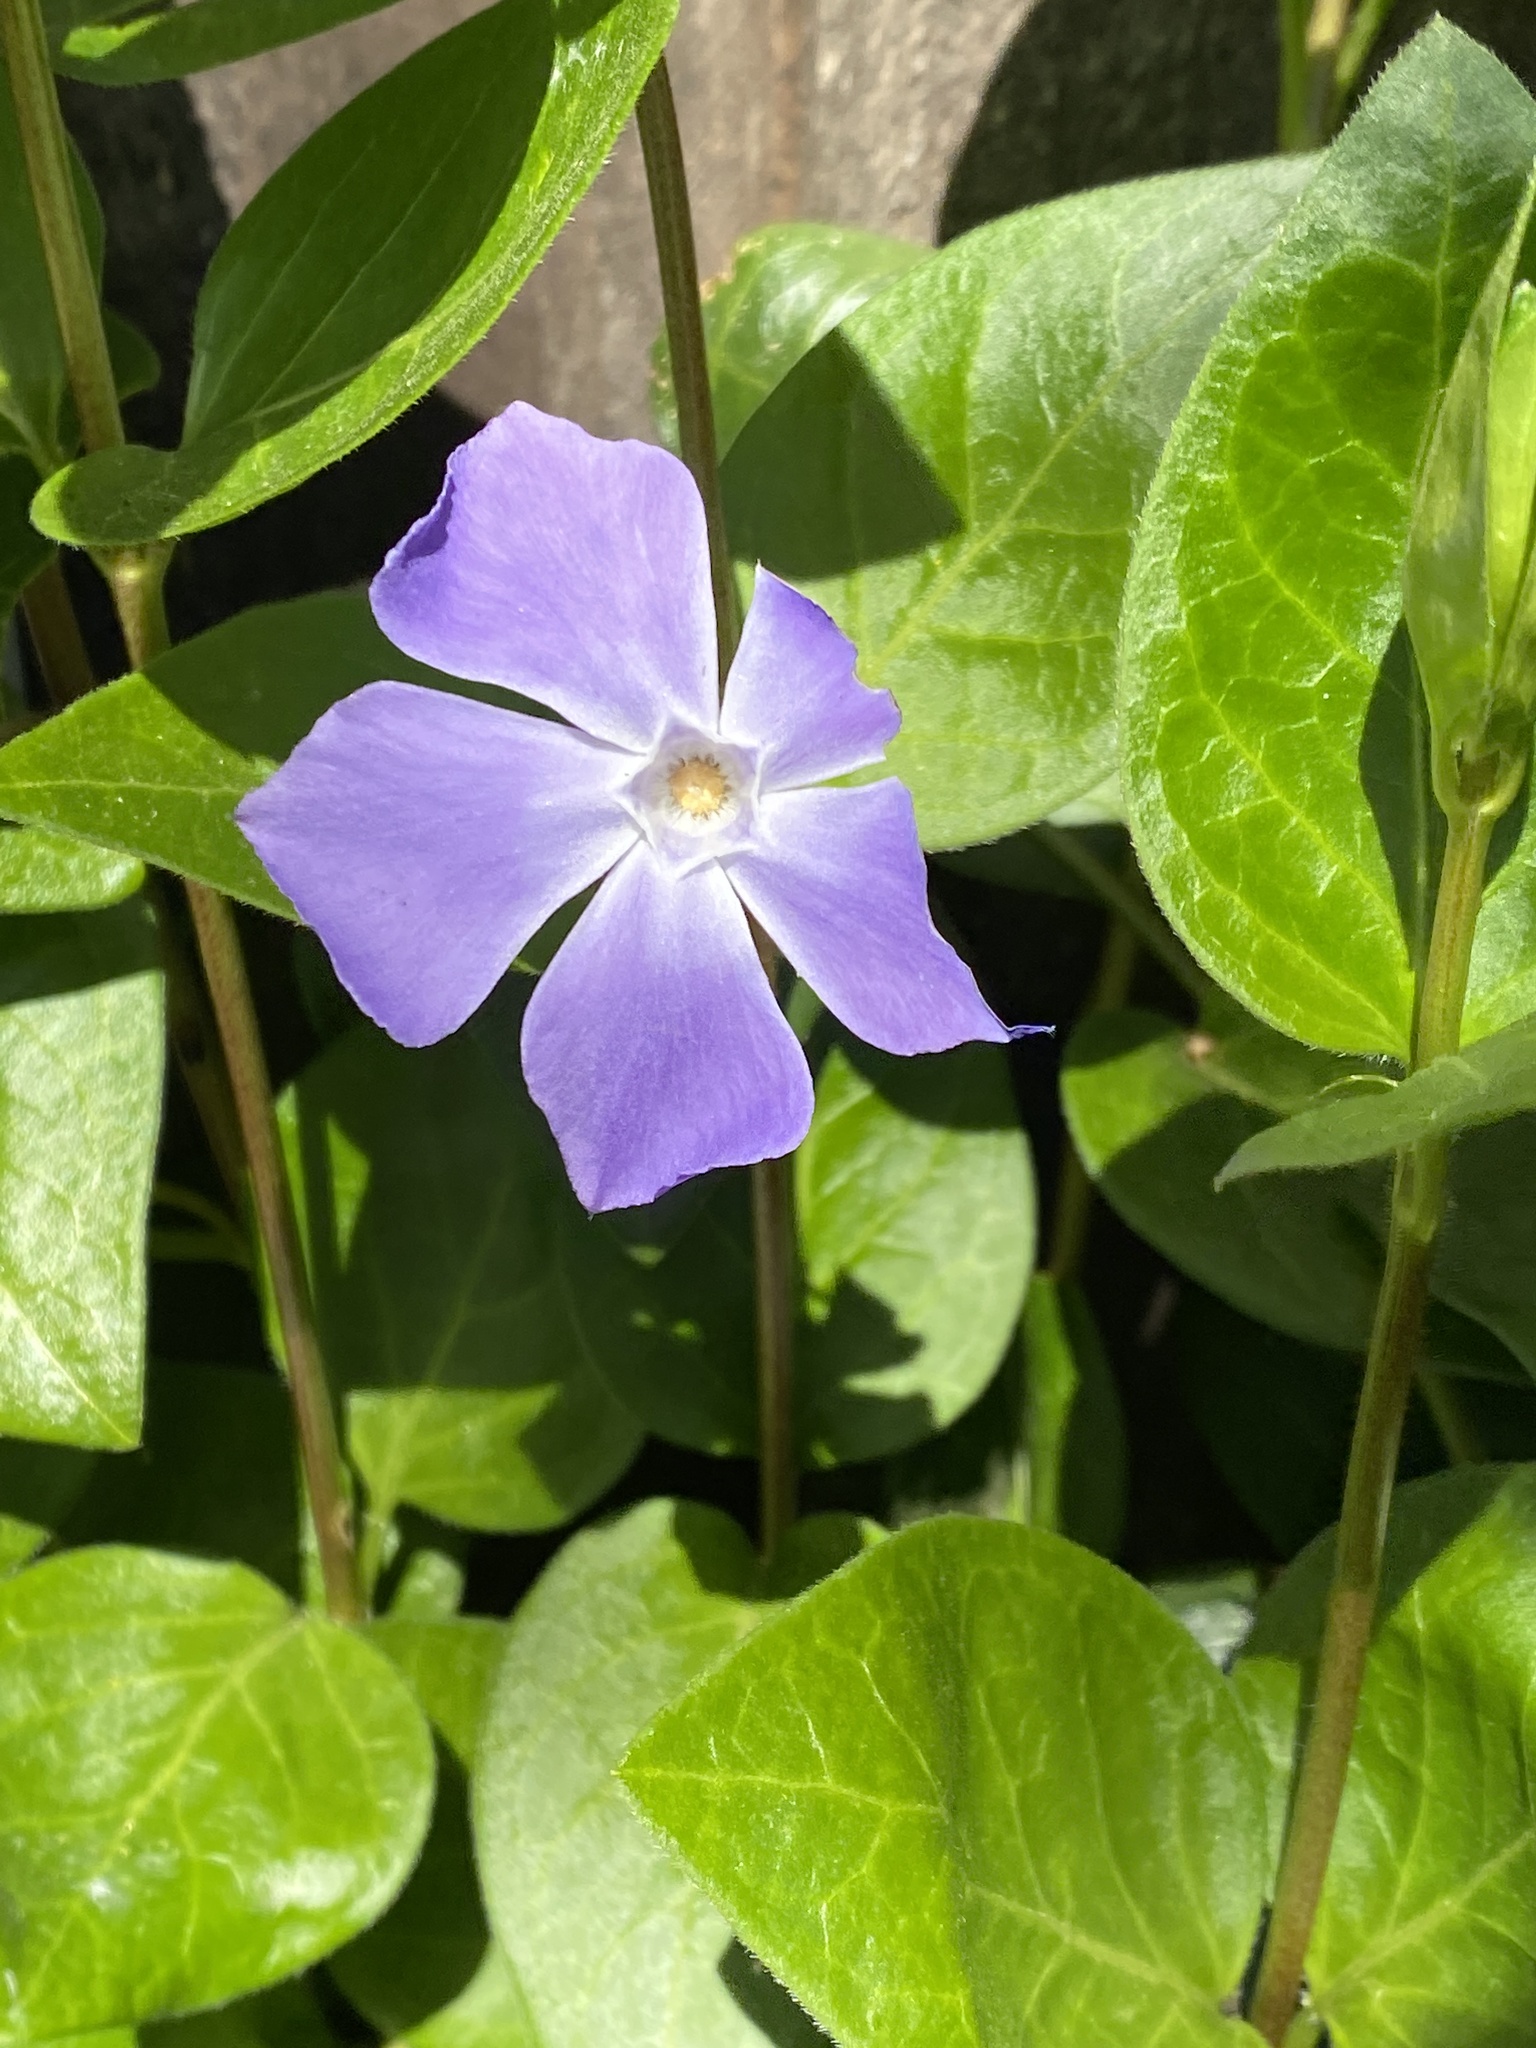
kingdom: Plantae
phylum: Tracheophyta
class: Magnoliopsida
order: Gentianales
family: Apocynaceae
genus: Vinca
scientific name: Vinca major
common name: Greater periwinkle
